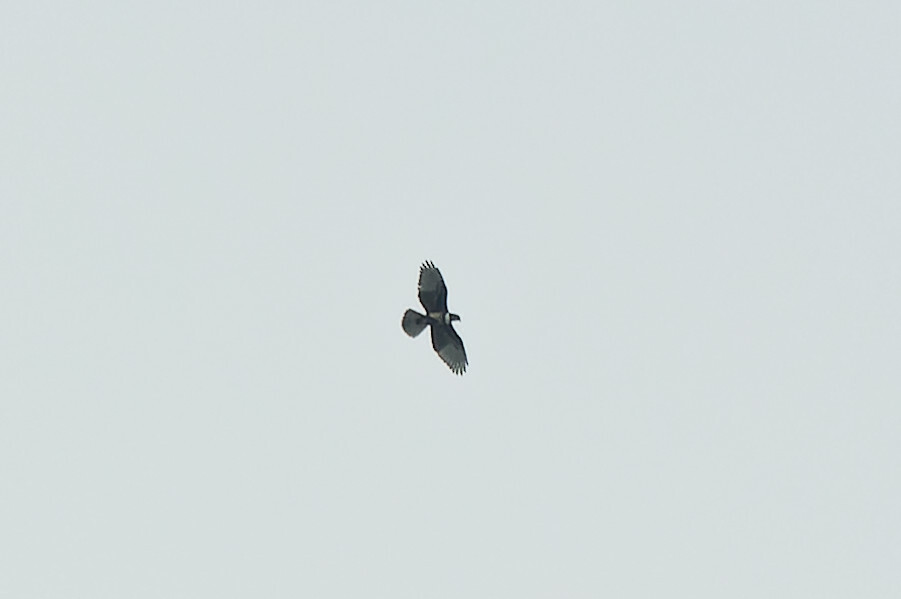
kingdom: Animalia
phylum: Chordata
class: Aves
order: Accipitriformes
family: Accipitridae
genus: Aviceda
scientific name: Aviceda leuphotes
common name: Black baza
